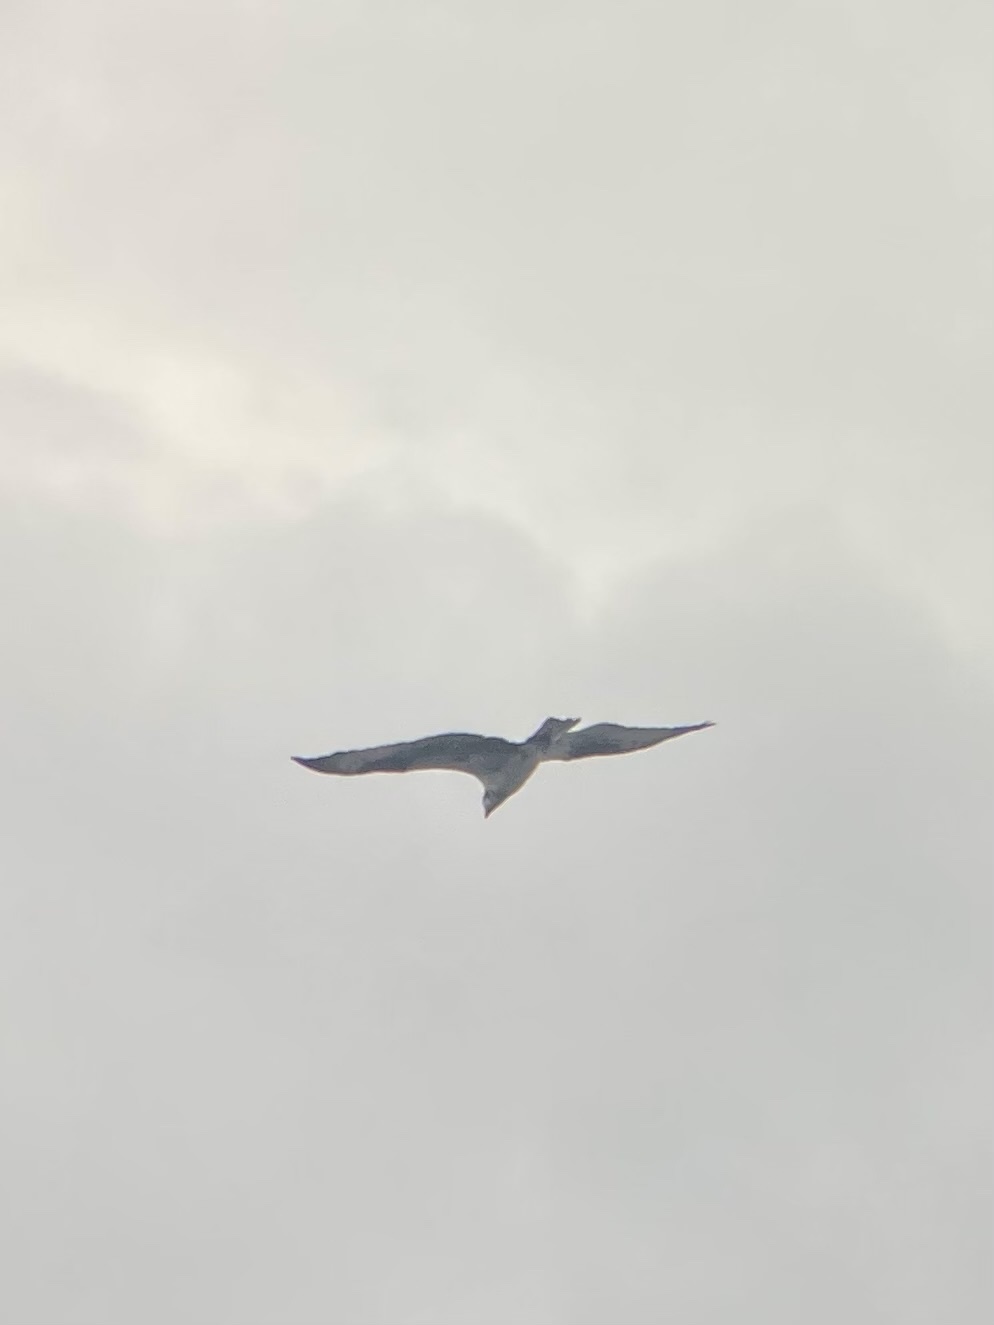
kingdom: Animalia
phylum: Chordata
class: Aves
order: Accipitriformes
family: Pandionidae
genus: Pandion
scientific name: Pandion haliaetus
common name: Osprey
